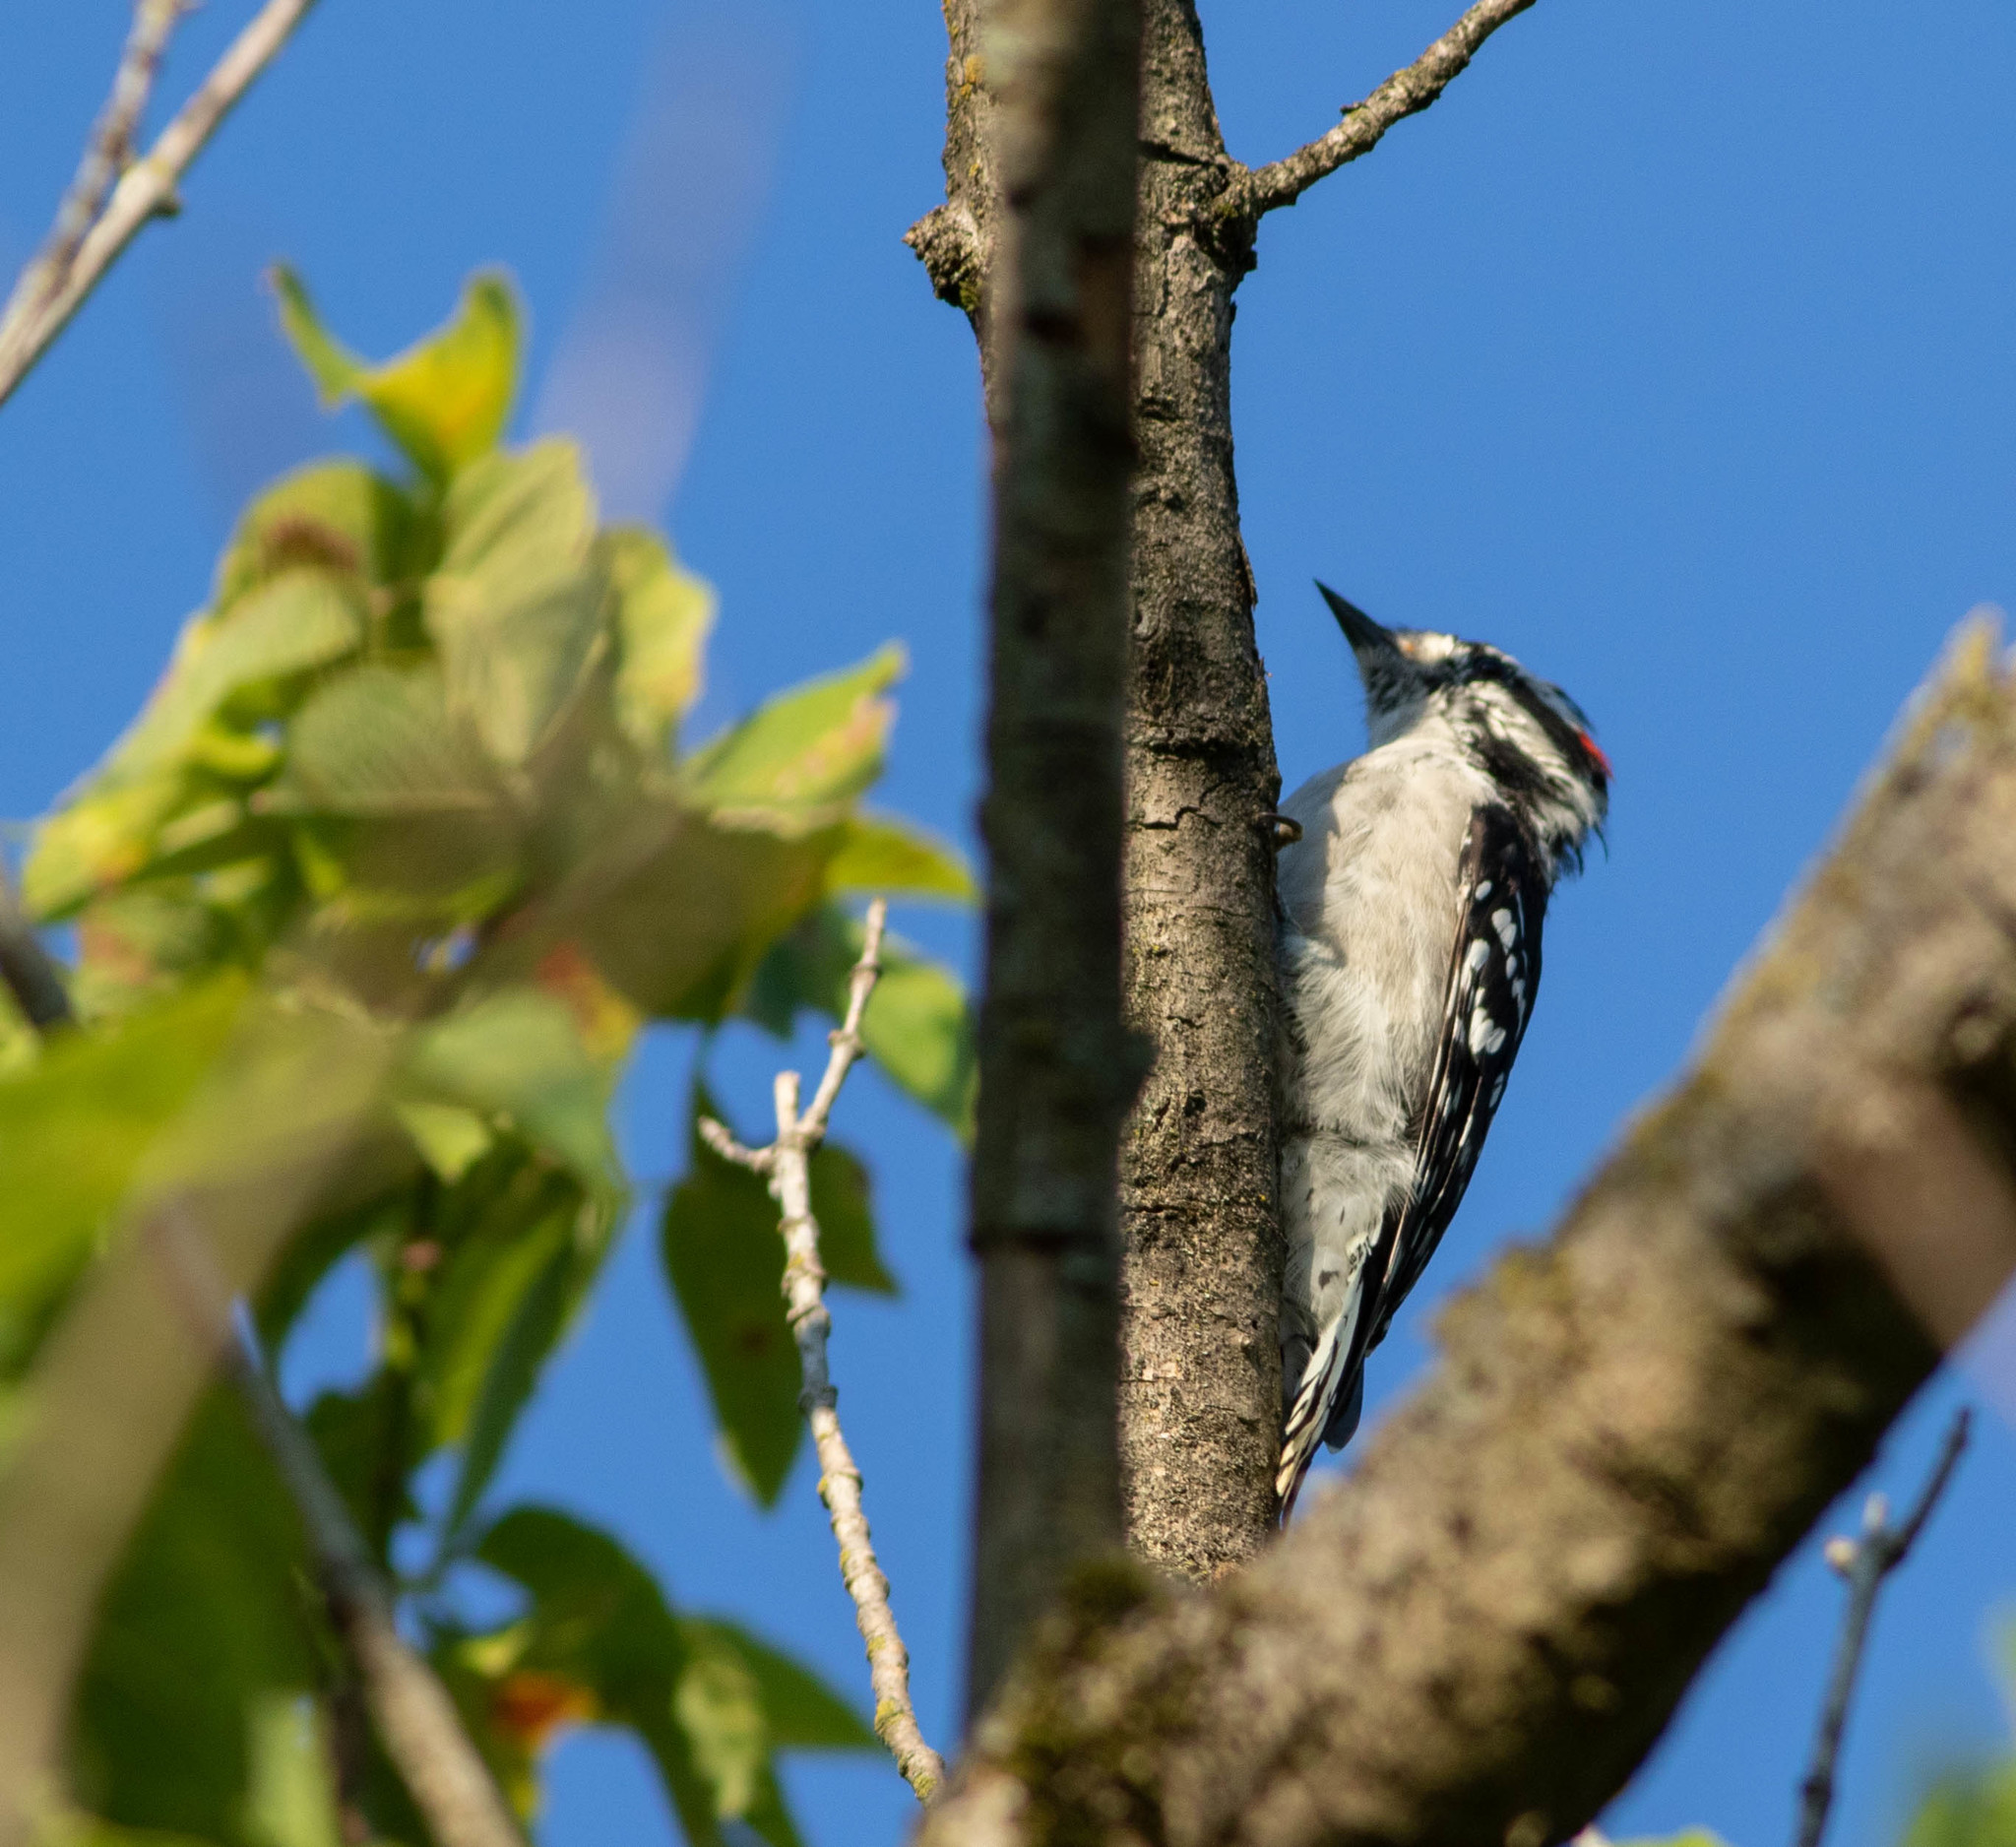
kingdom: Animalia
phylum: Chordata
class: Aves
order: Piciformes
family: Picidae
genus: Dryobates
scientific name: Dryobates pubescens
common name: Downy woodpecker
